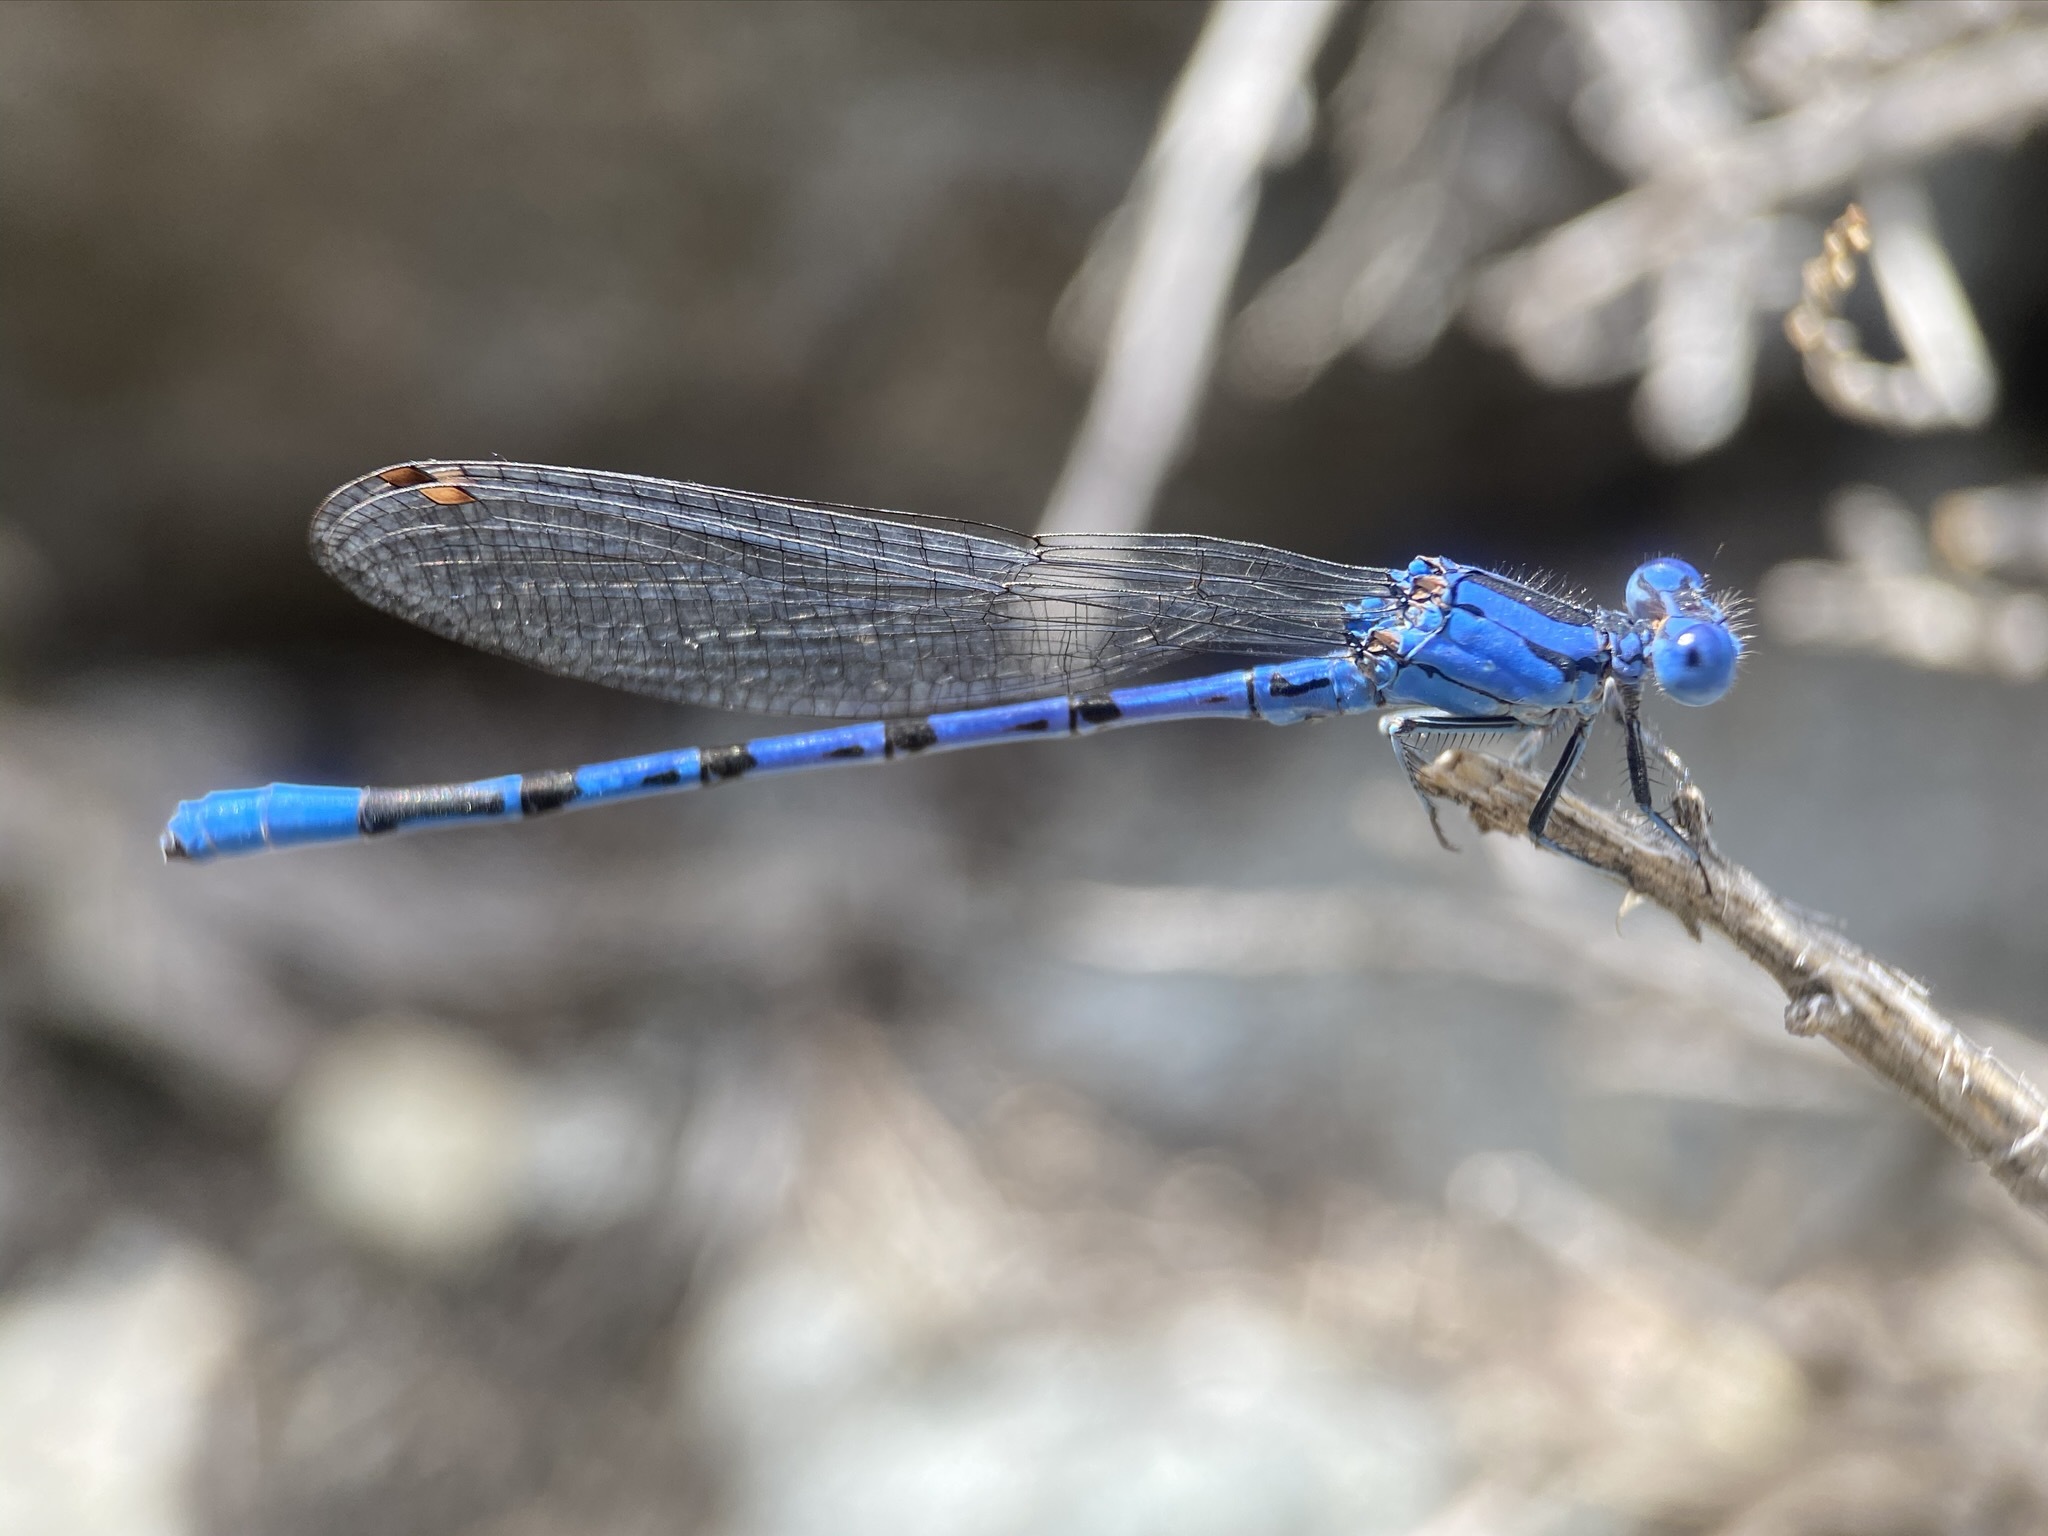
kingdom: Animalia
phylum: Arthropoda
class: Insecta
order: Odonata
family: Coenagrionidae
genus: Argia
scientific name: Argia vivida
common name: Vivid dancer
